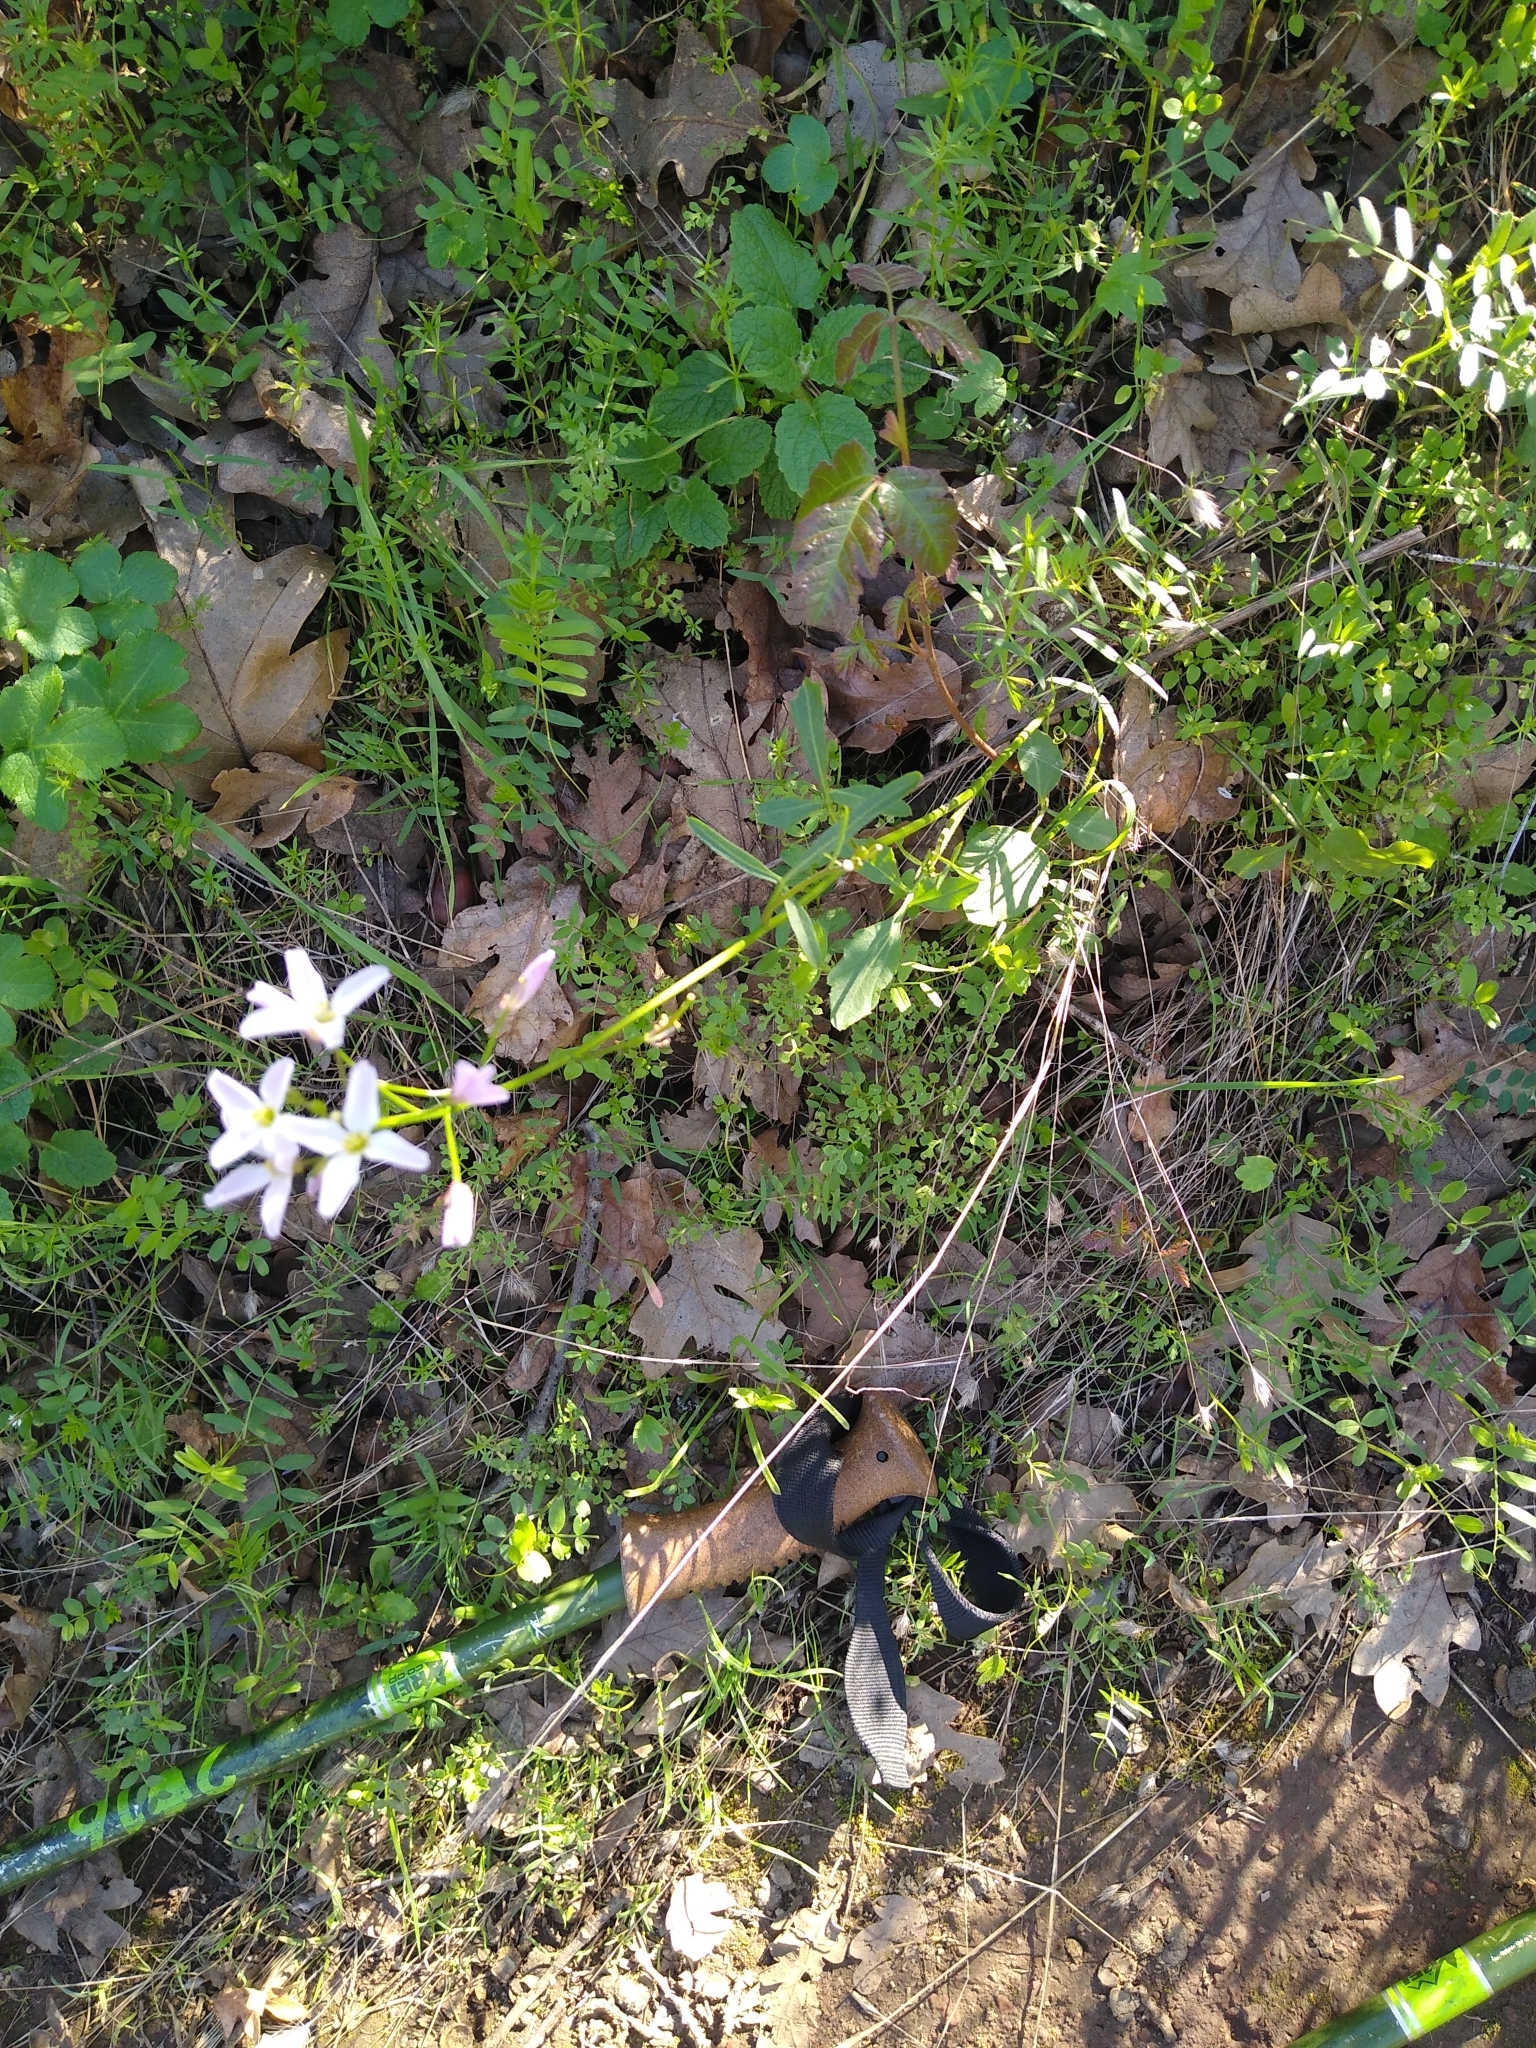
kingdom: Plantae
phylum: Tracheophyta
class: Magnoliopsida
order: Brassicales
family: Brassicaceae
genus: Cardamine
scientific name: Cardamine californica
